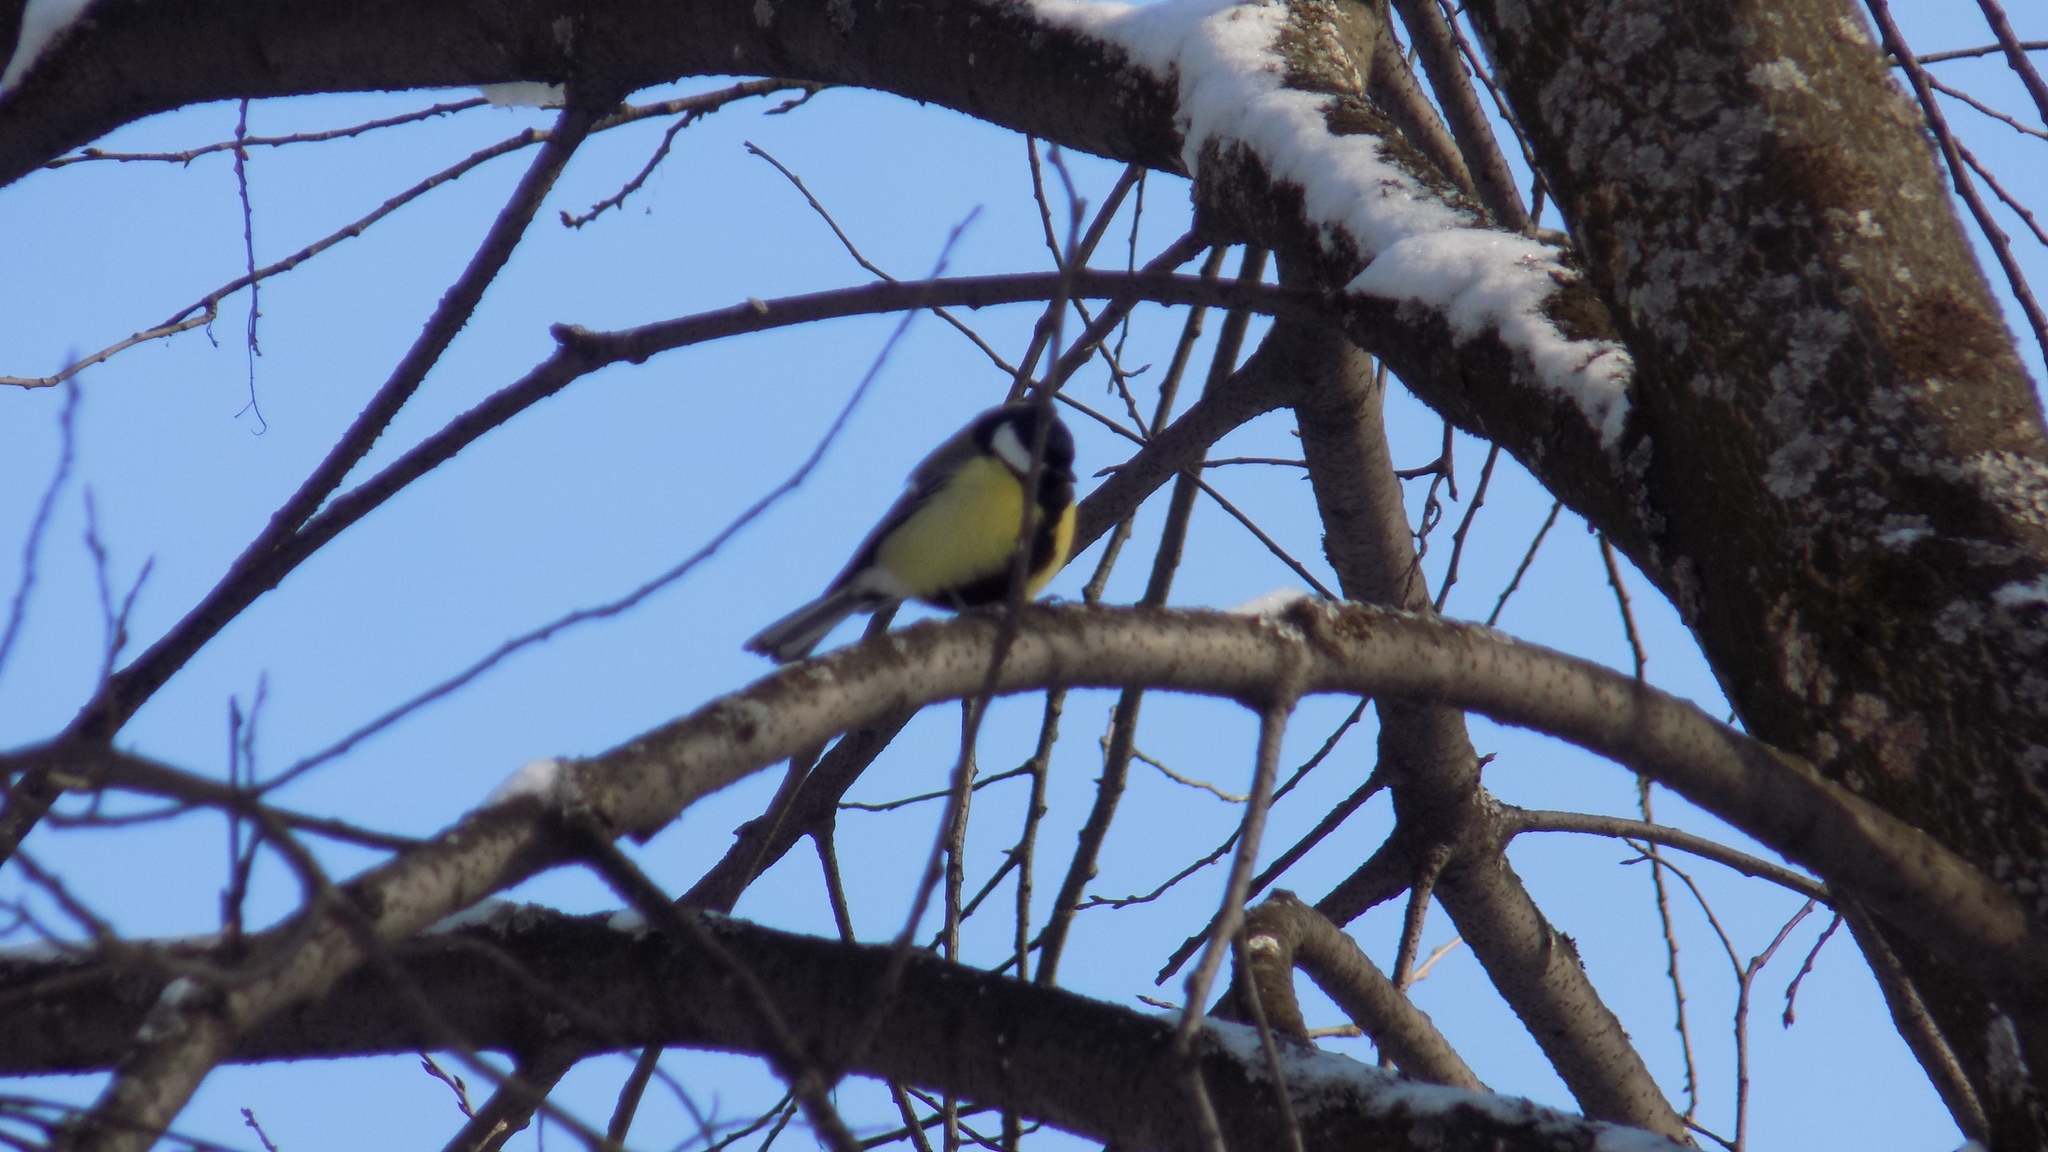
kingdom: Animalia
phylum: Chordata
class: Aves
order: Passeriformes
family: Paridae
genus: Parus
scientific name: Parus major
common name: Great tit
